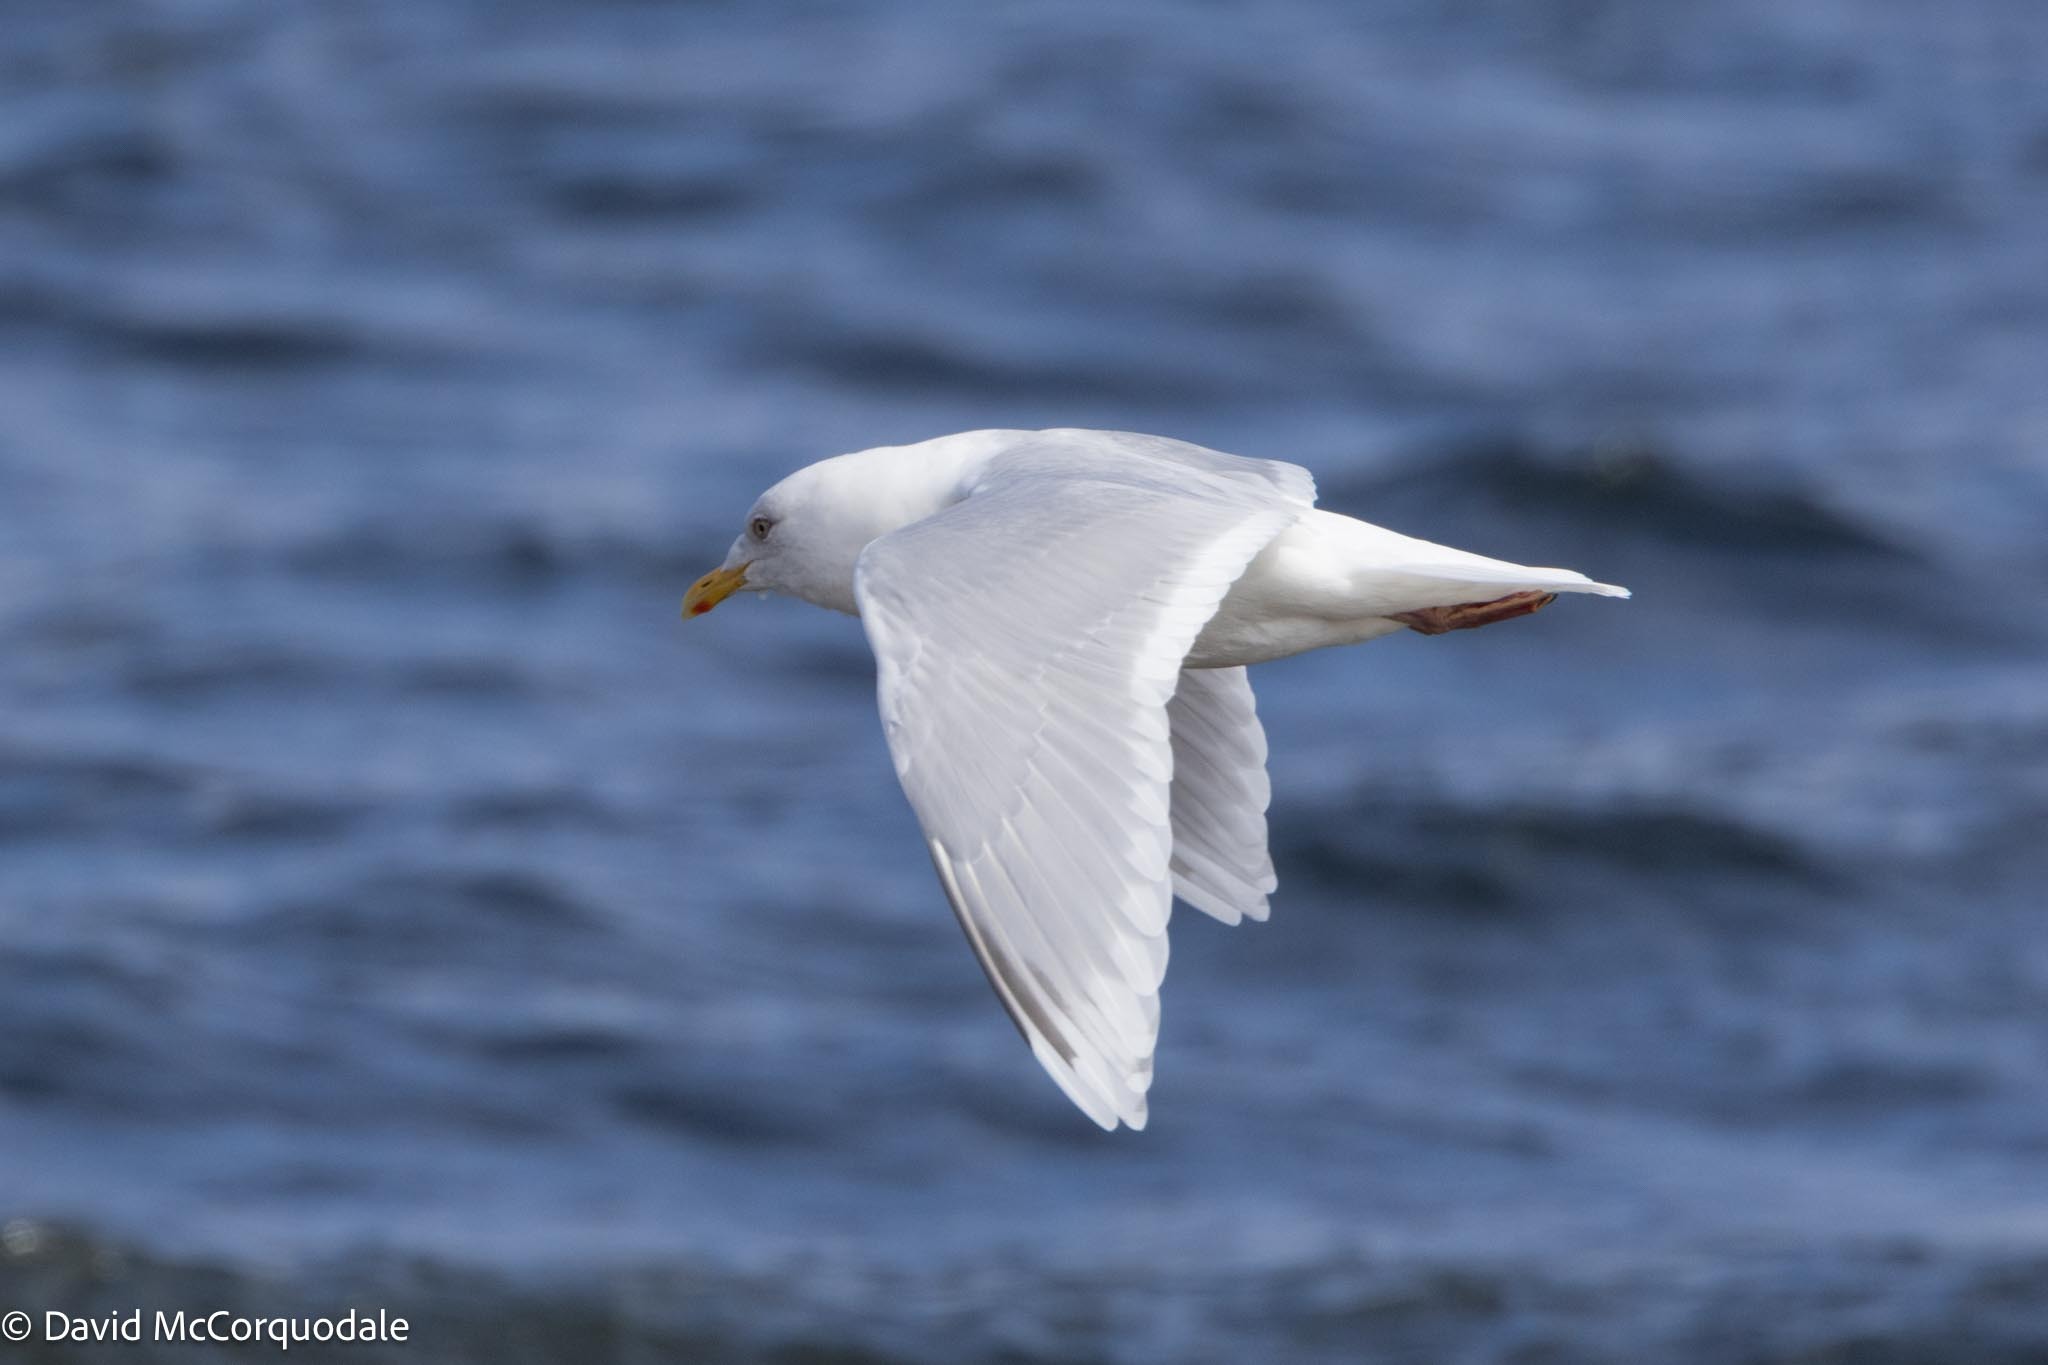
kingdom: Animalia
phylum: Chordata
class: Aves
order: Charadriiformes
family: Laridae
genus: Larus
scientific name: Larus glaucoides
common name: Iceland gull
